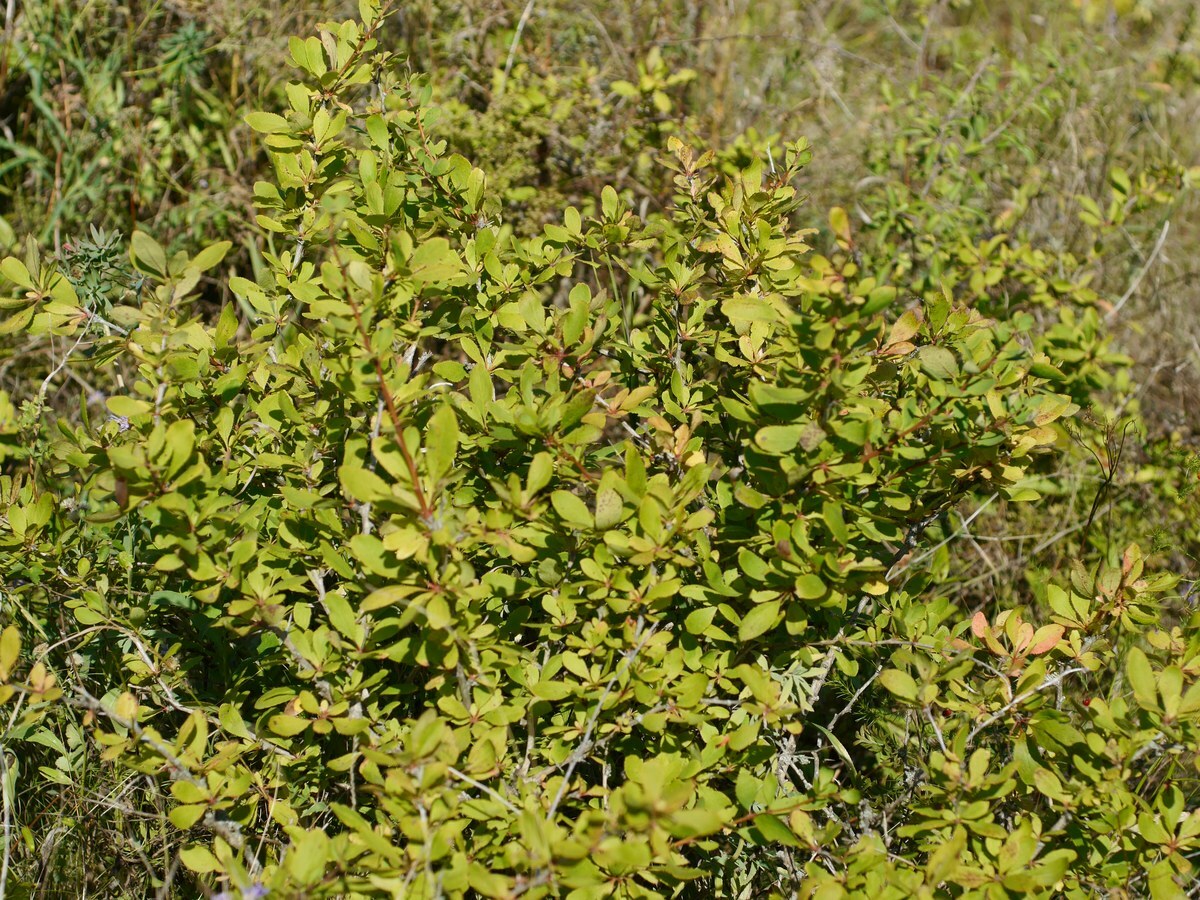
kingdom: Plantae
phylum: Tracheophyta
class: Magnoliopsida
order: Ranunculales
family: Berberidaceae
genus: Berberis
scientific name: Berberis vulgaris
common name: Barberry
